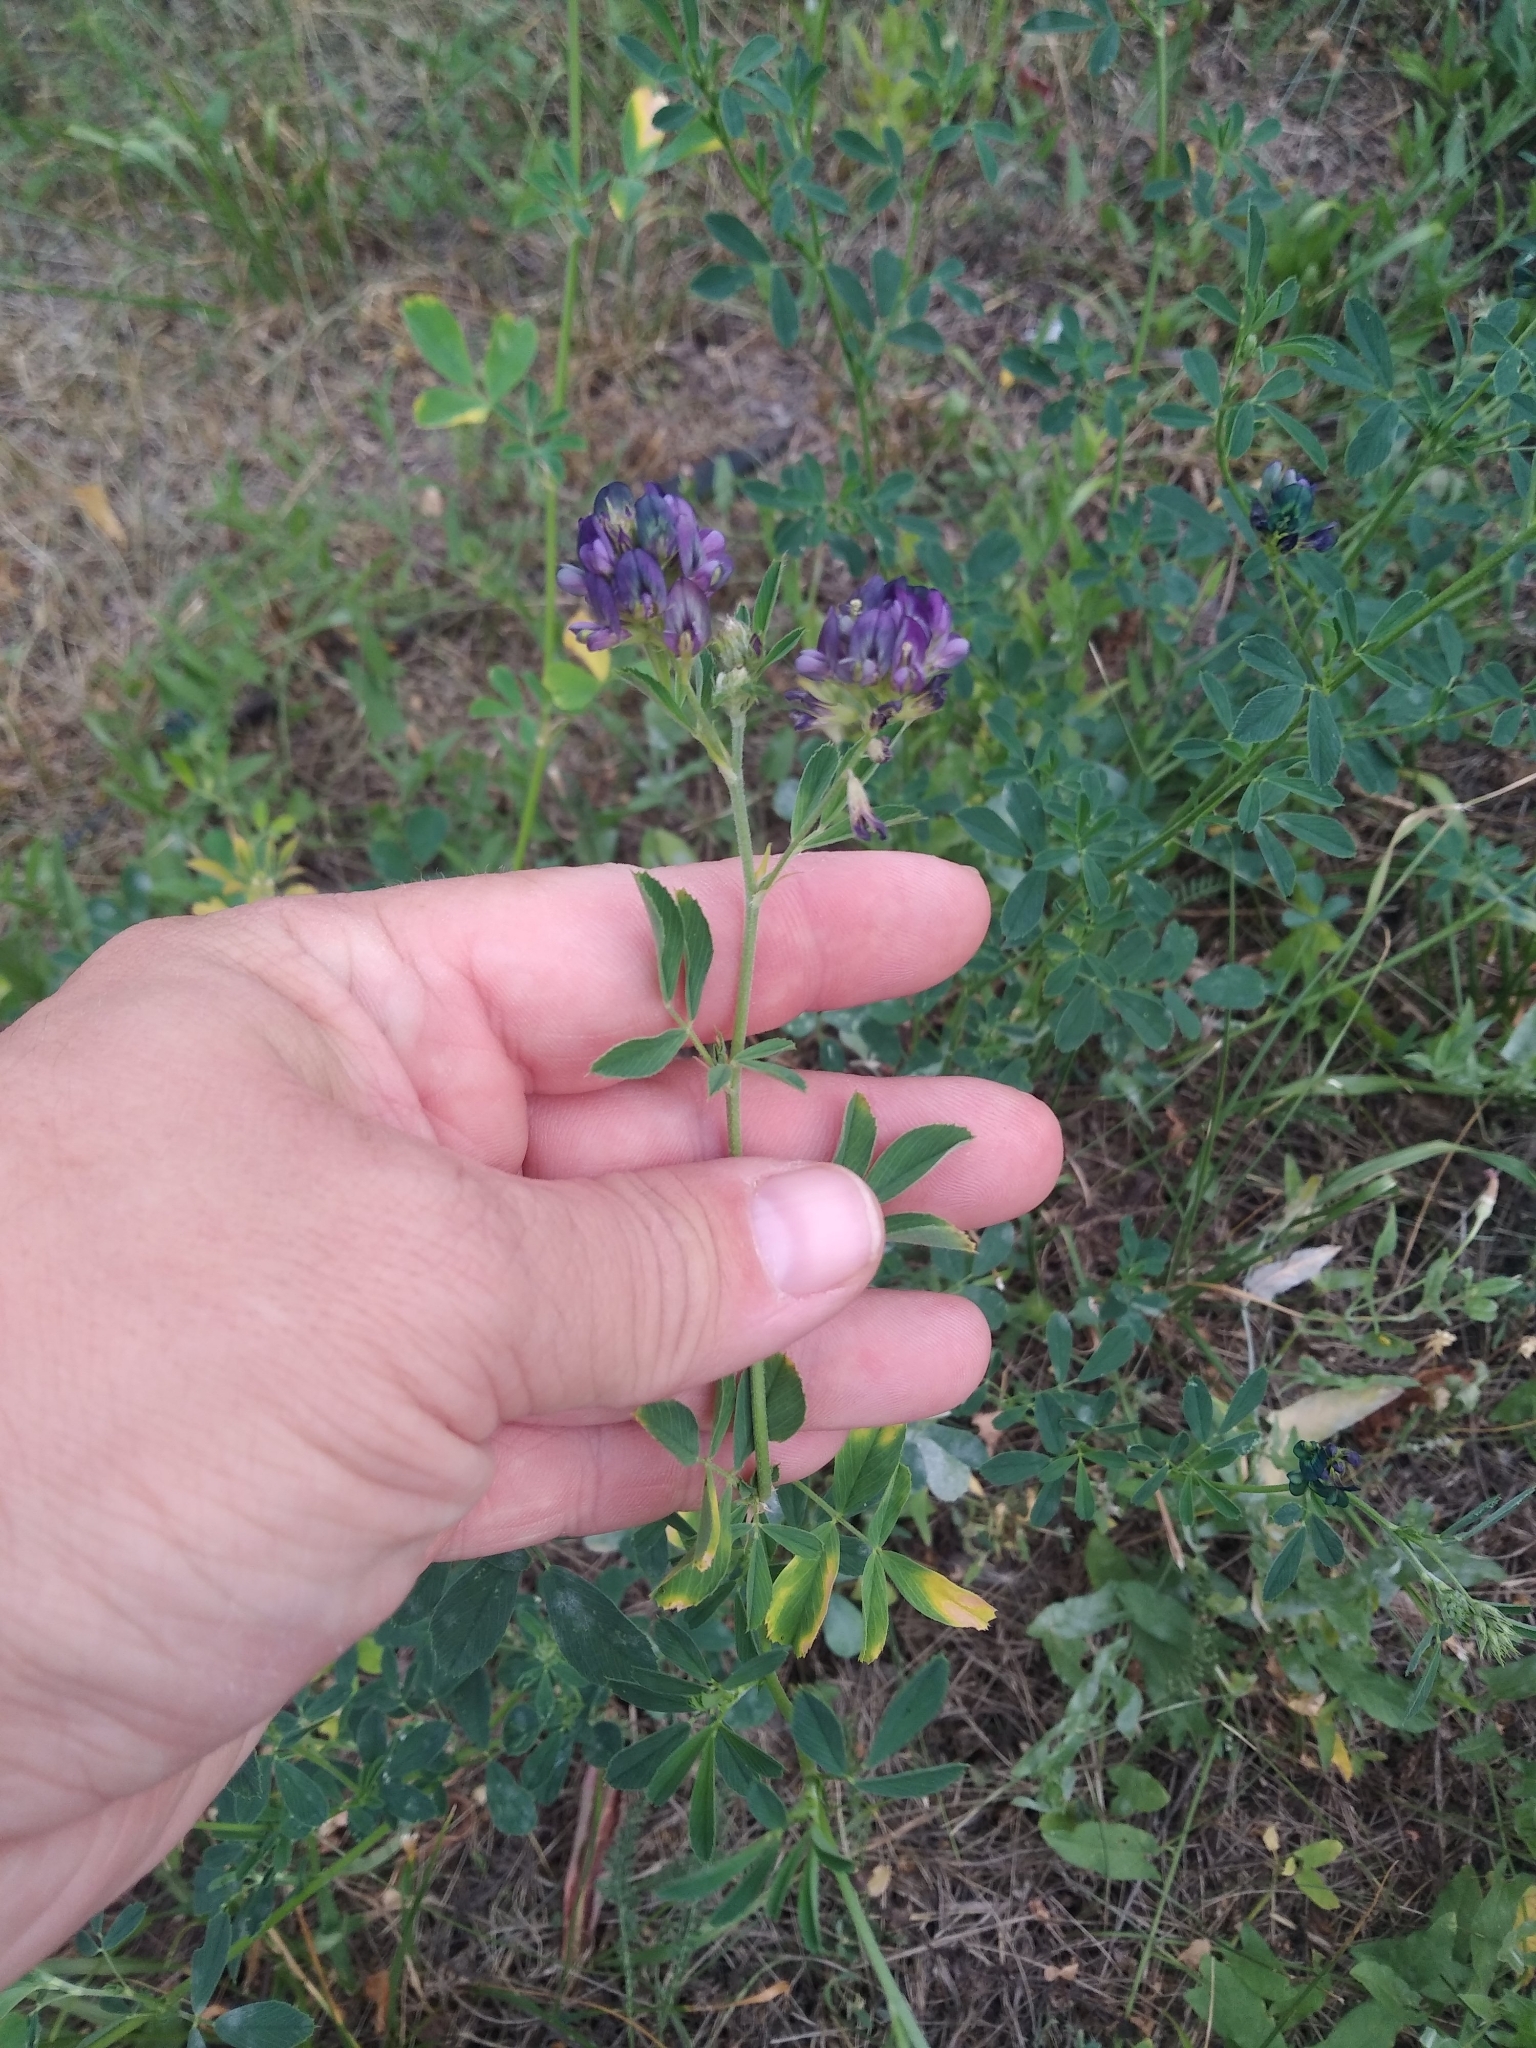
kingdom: Plantae
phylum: Tracheophyta
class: Magnoliopsida
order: Fabales
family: Fabaceae
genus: Medicago
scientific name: Medicago varia
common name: Sand lucerne
